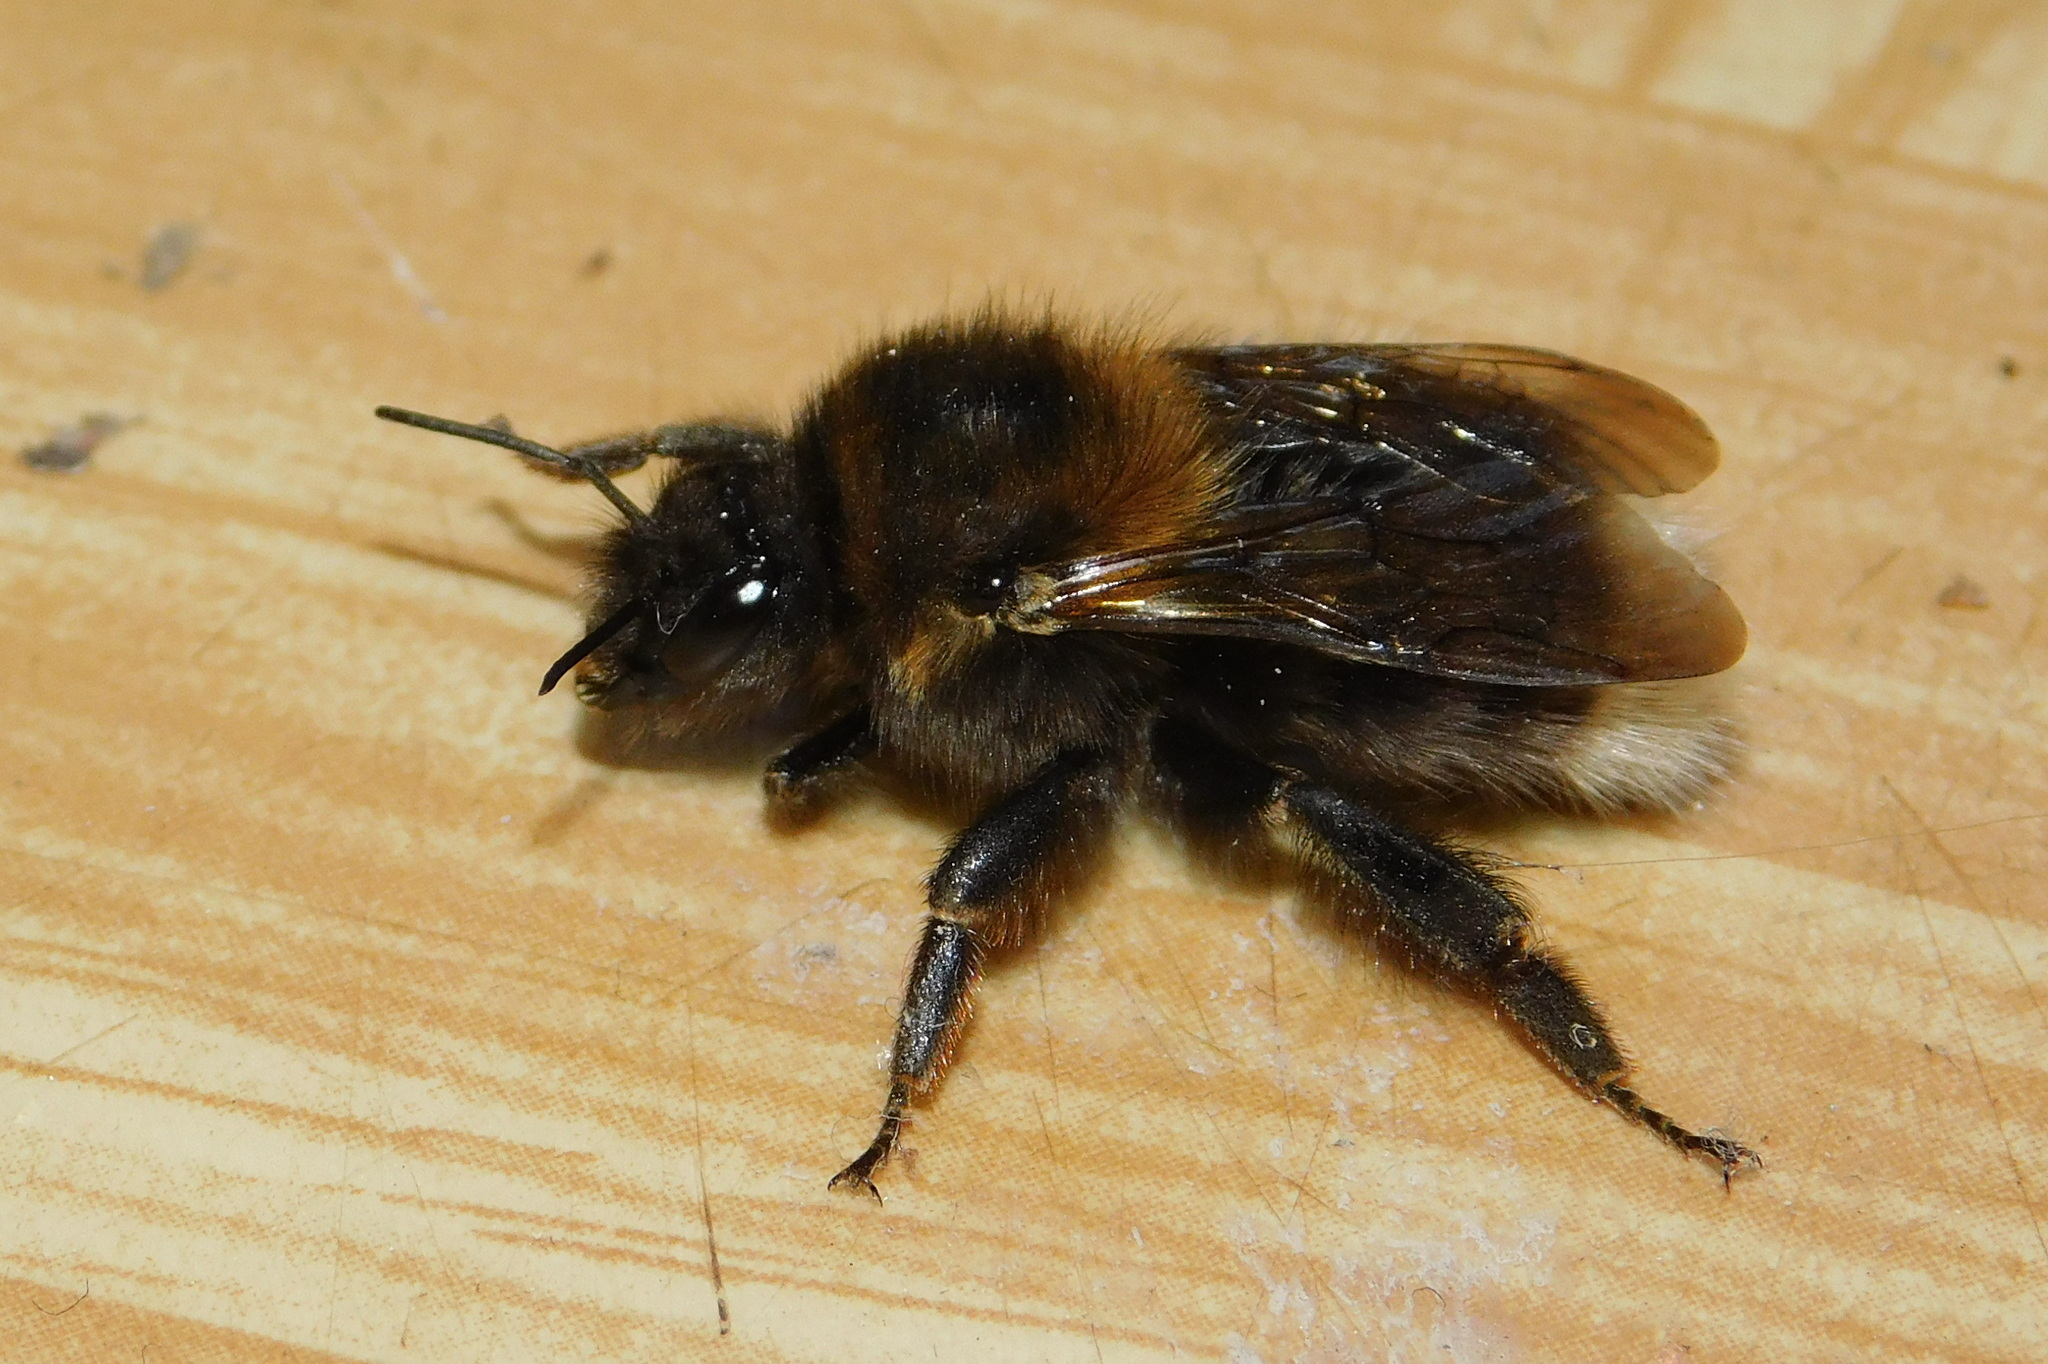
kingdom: Animalia
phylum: Arthropoda
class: Insecta
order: Hymenoptera
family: Apidae
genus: Bombus
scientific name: Bombus hypnorum
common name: New garden bumblebee
